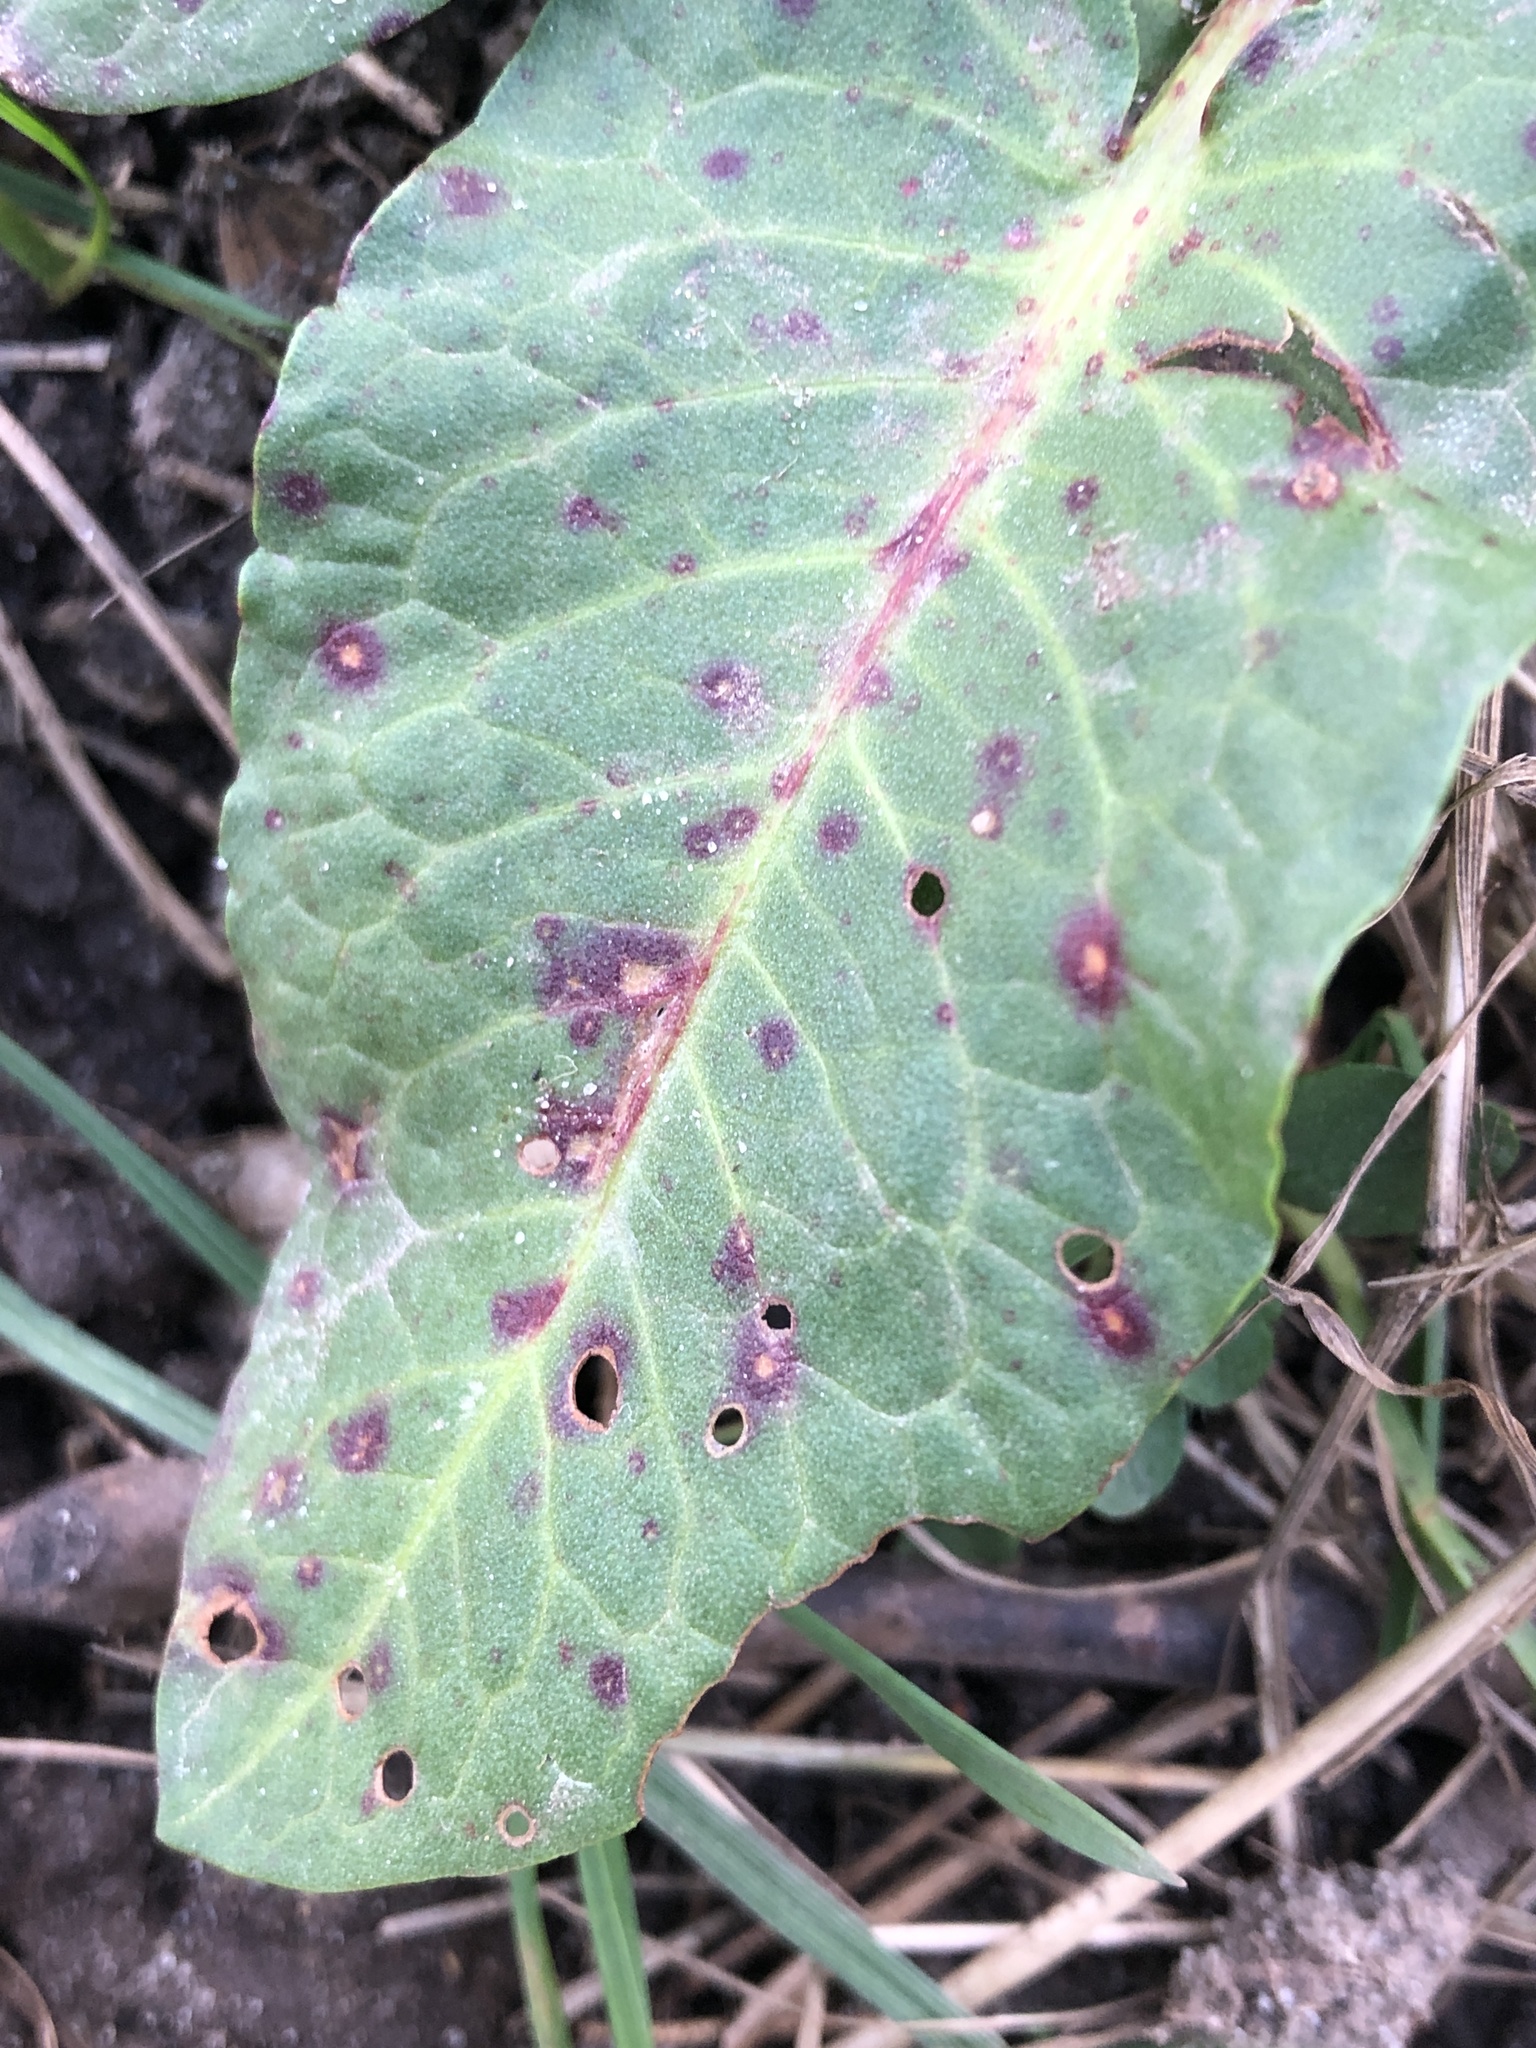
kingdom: Fungi
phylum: Ascomycota
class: Dothideomycetes
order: Mycosphaerellales
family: Mycosphaerellaceae
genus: Ramularia
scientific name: Ramularia rubella
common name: Red dock spot
